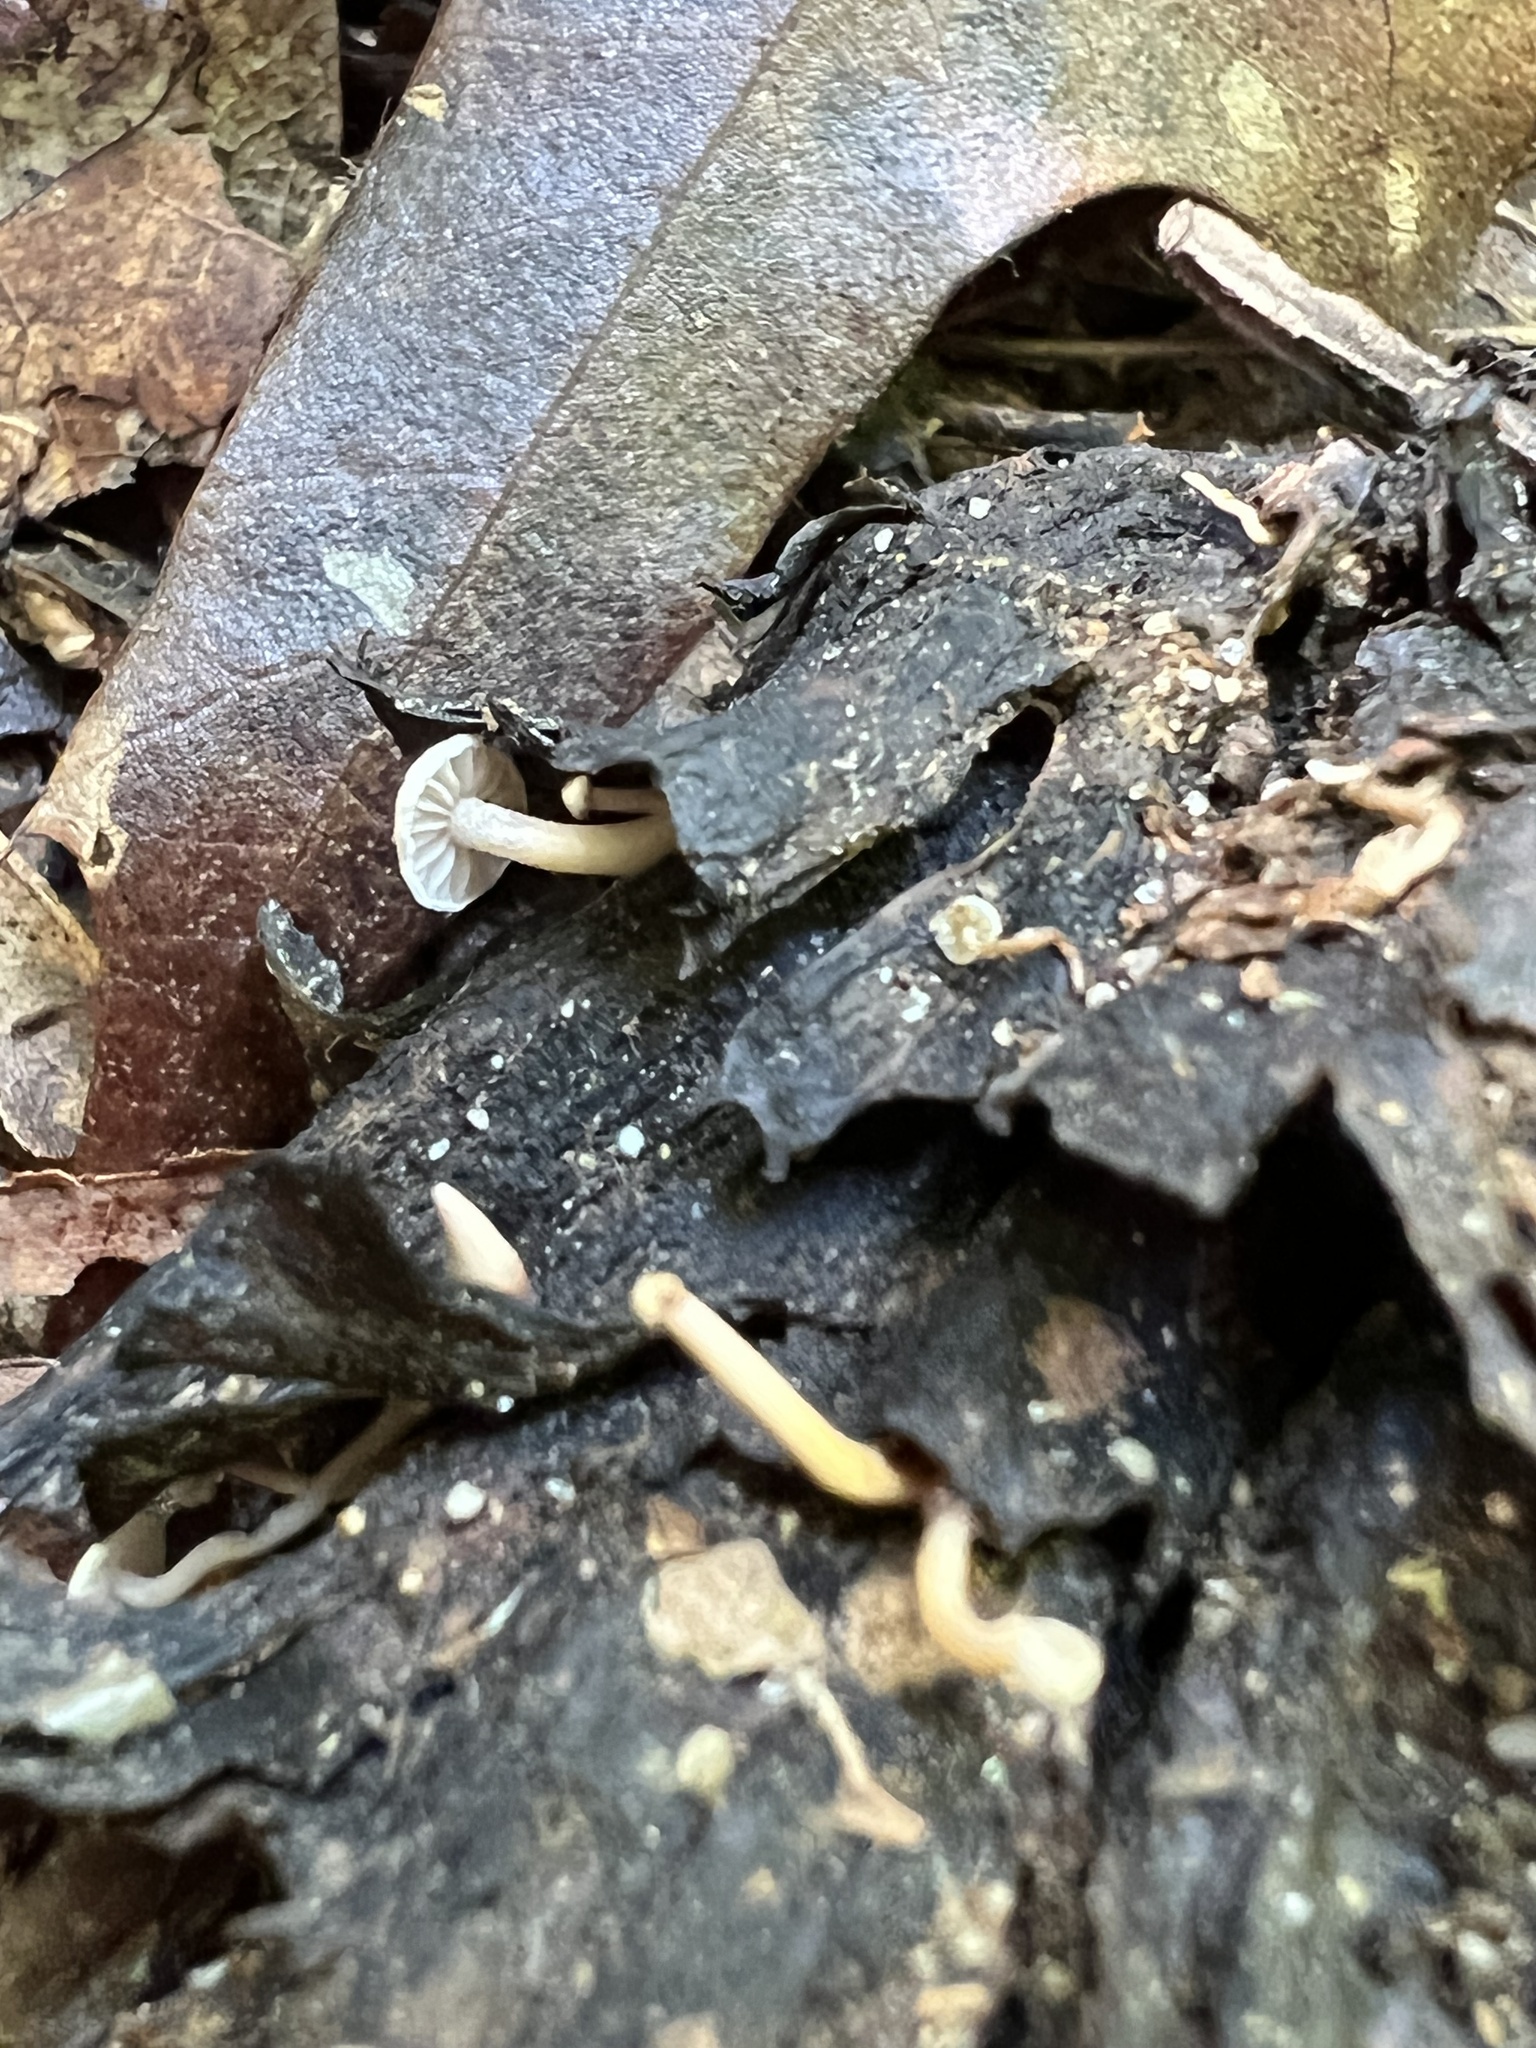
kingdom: Fungi
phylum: Basidiomycota
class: Agaricomycetes
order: Agaricales
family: Physalacriaceae
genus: Strobilurus
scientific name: Strobilurus conigenoides
